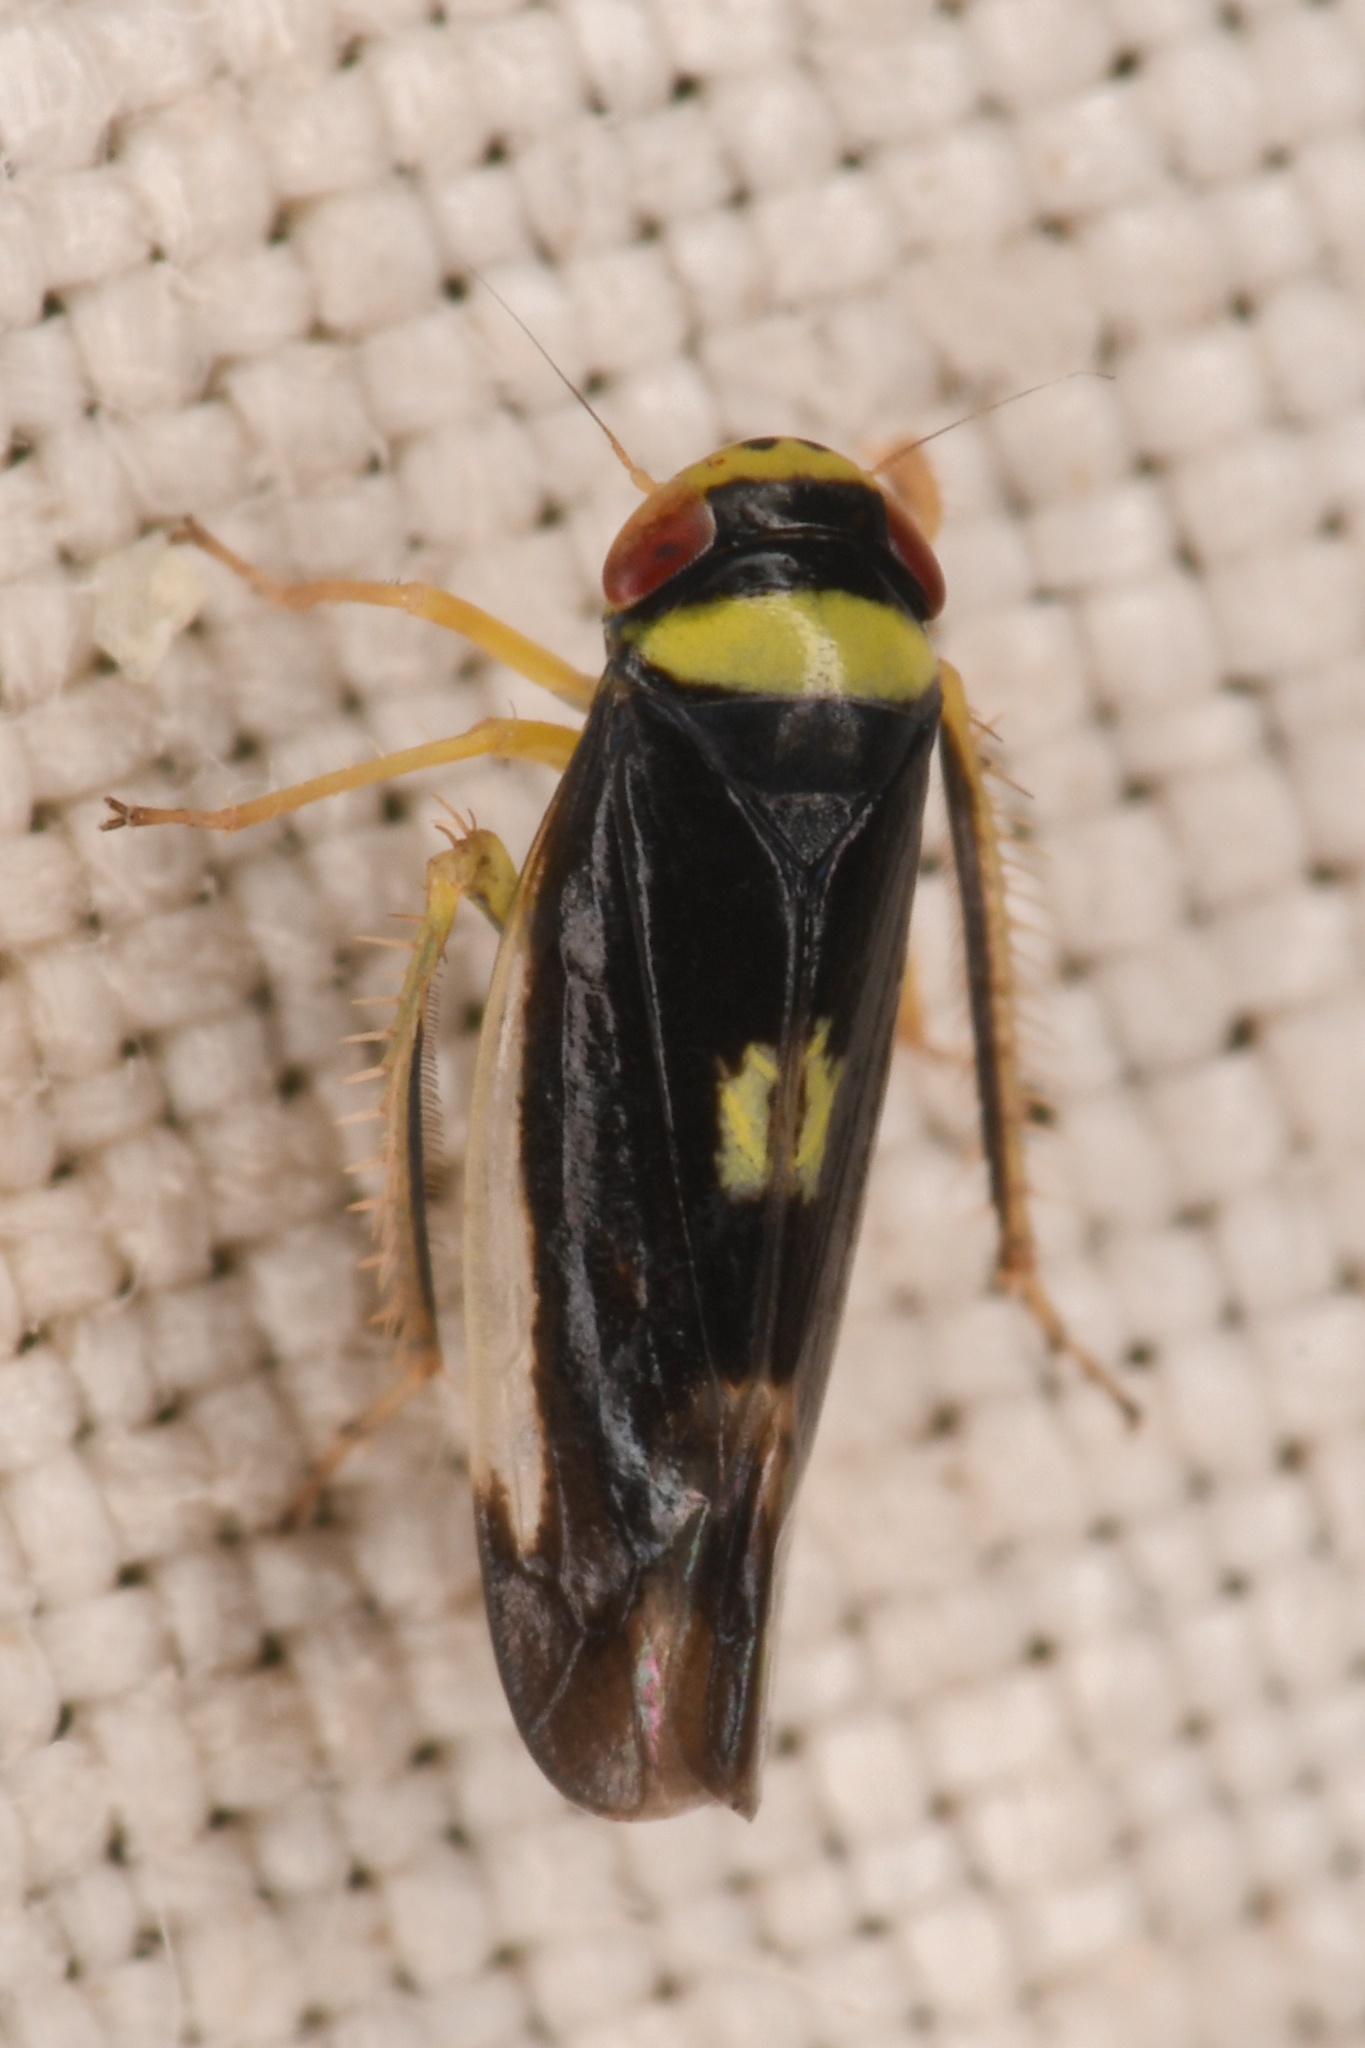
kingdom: Animalia
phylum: Arthropoda
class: Insecta
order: Hemiptera
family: Cicadellidae
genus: Colladonus
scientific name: Colladonus montanus
